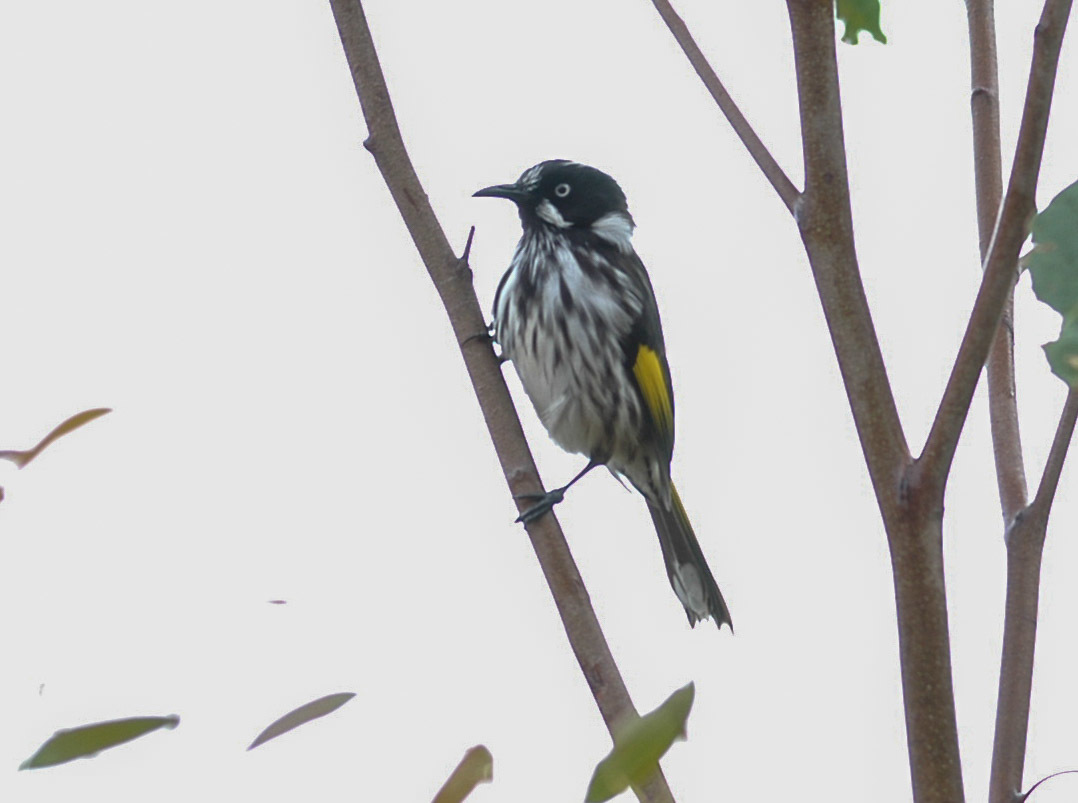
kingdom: Animalia
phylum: Chordata
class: Aves
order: Passeriformes
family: Meliphagidae
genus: Phylidonyris
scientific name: Phylidonyris novaehollandiae
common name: New holland honeyeater
